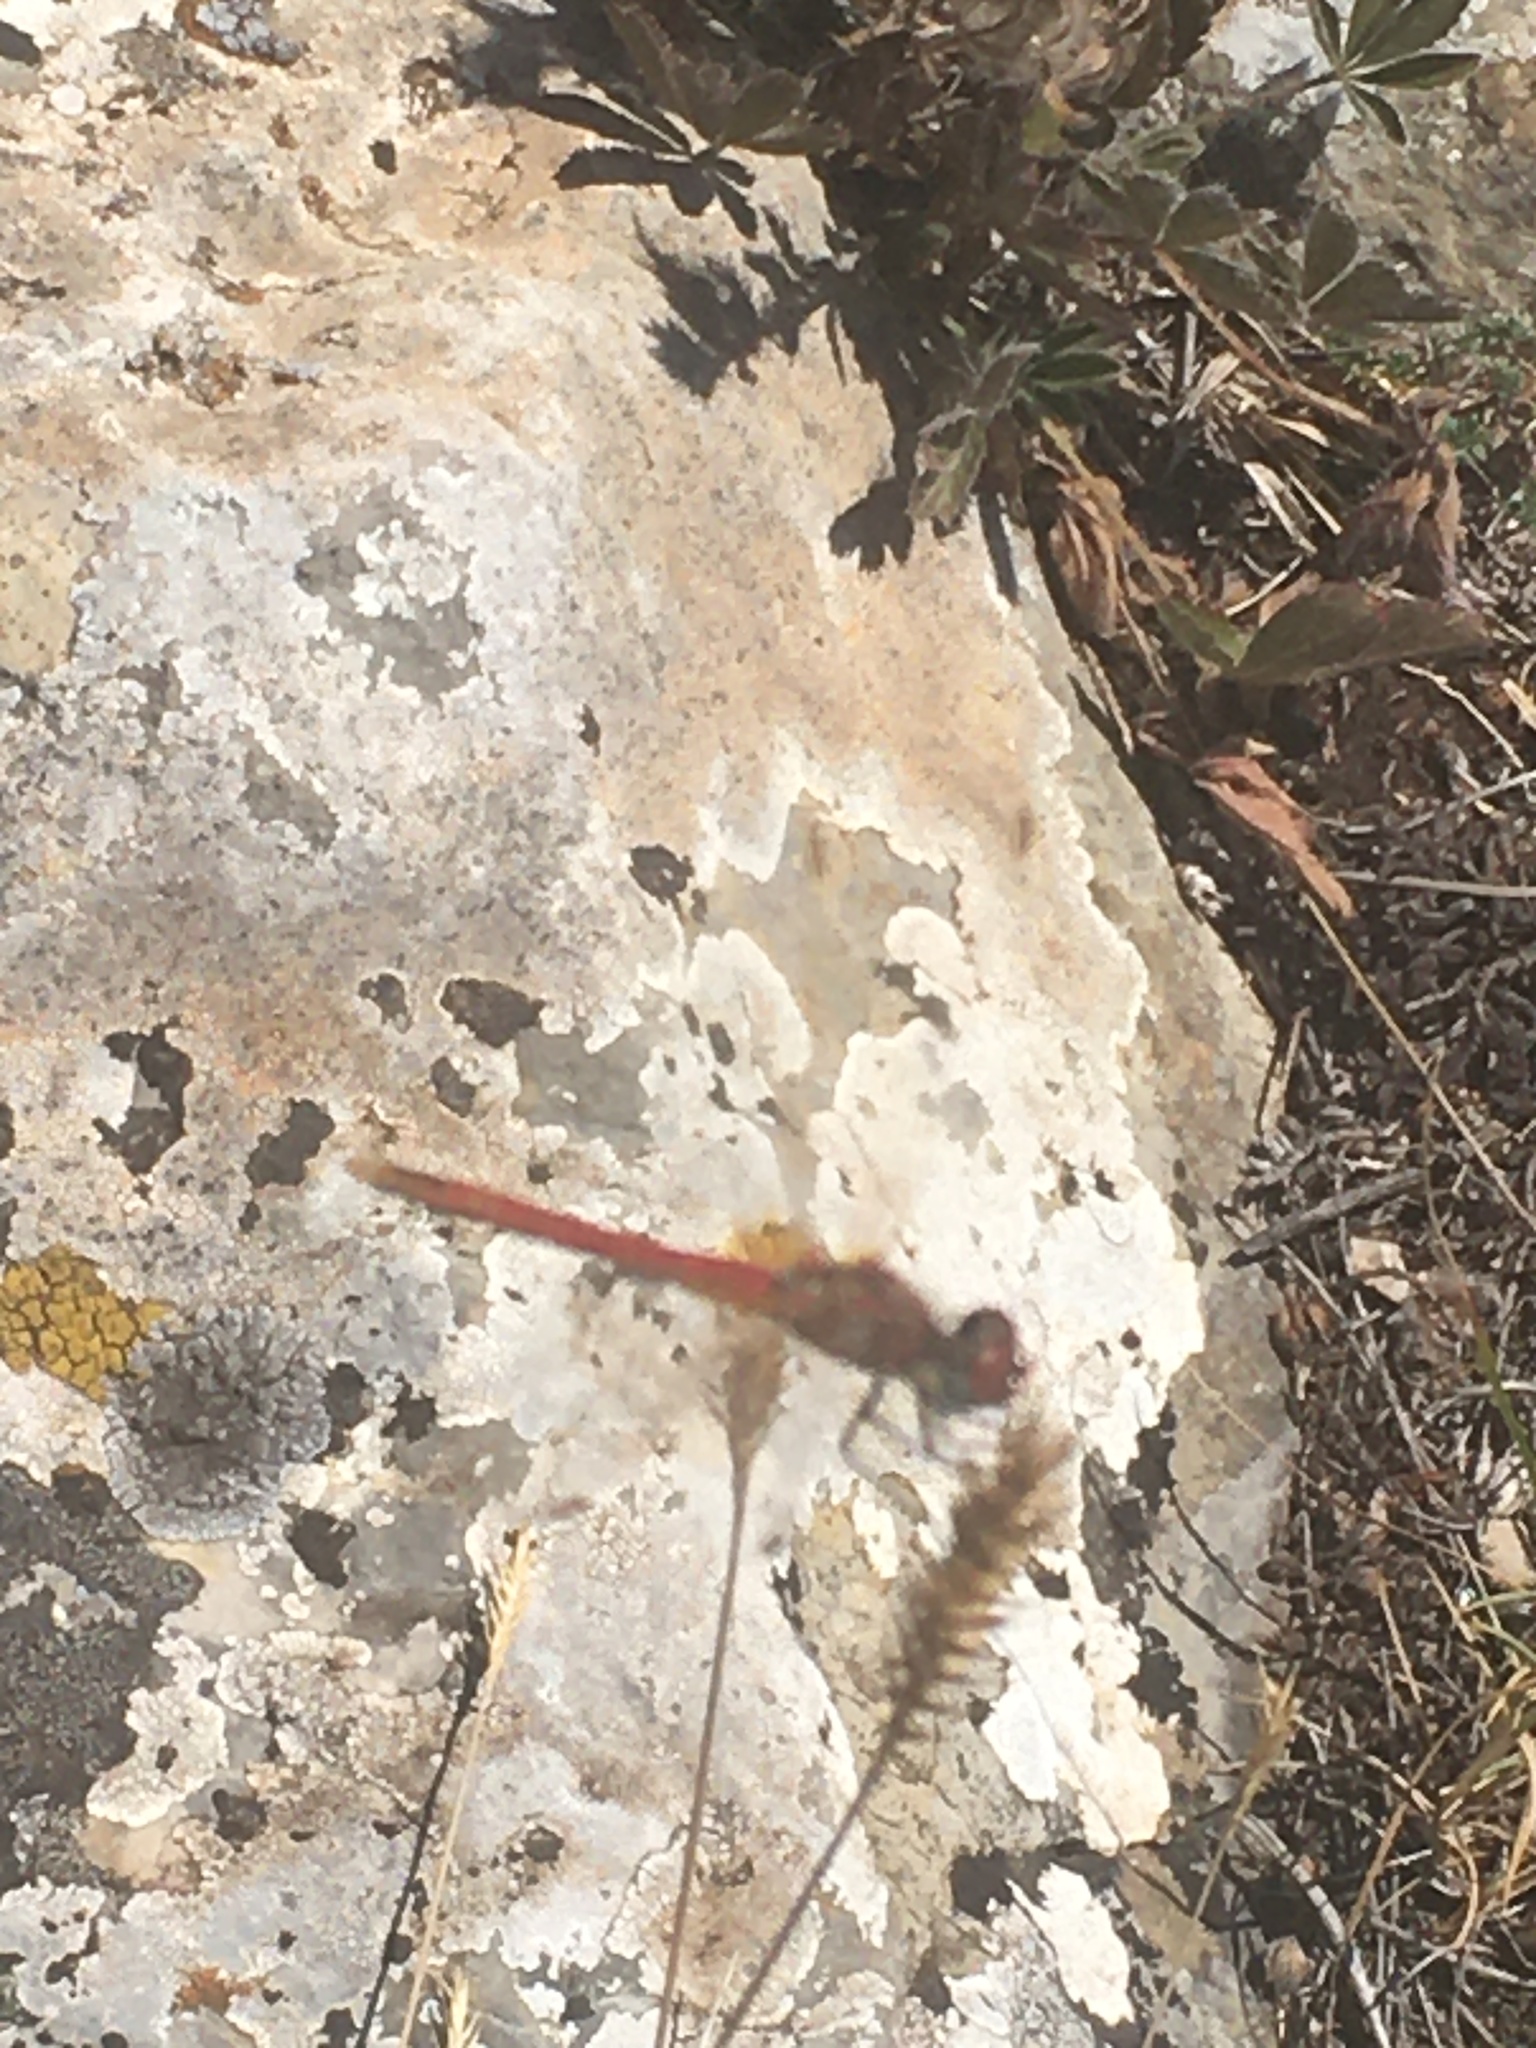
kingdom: Animalia
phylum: Arthropoda
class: Insecta
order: Odonata
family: Libellulidae
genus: Sympetrum
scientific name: Sympetrum fonscolombii
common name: Red-veined darter
